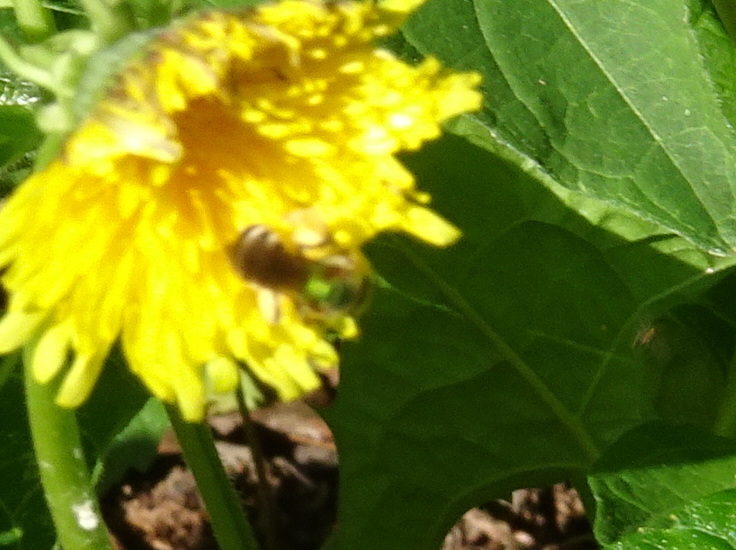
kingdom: Animalia
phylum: Arthropoda
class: Insecta
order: Hymenoptera
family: Halictidae
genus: Agapostemon
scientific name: Agapostemon virescens
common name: Bicolored striped sweat bee
